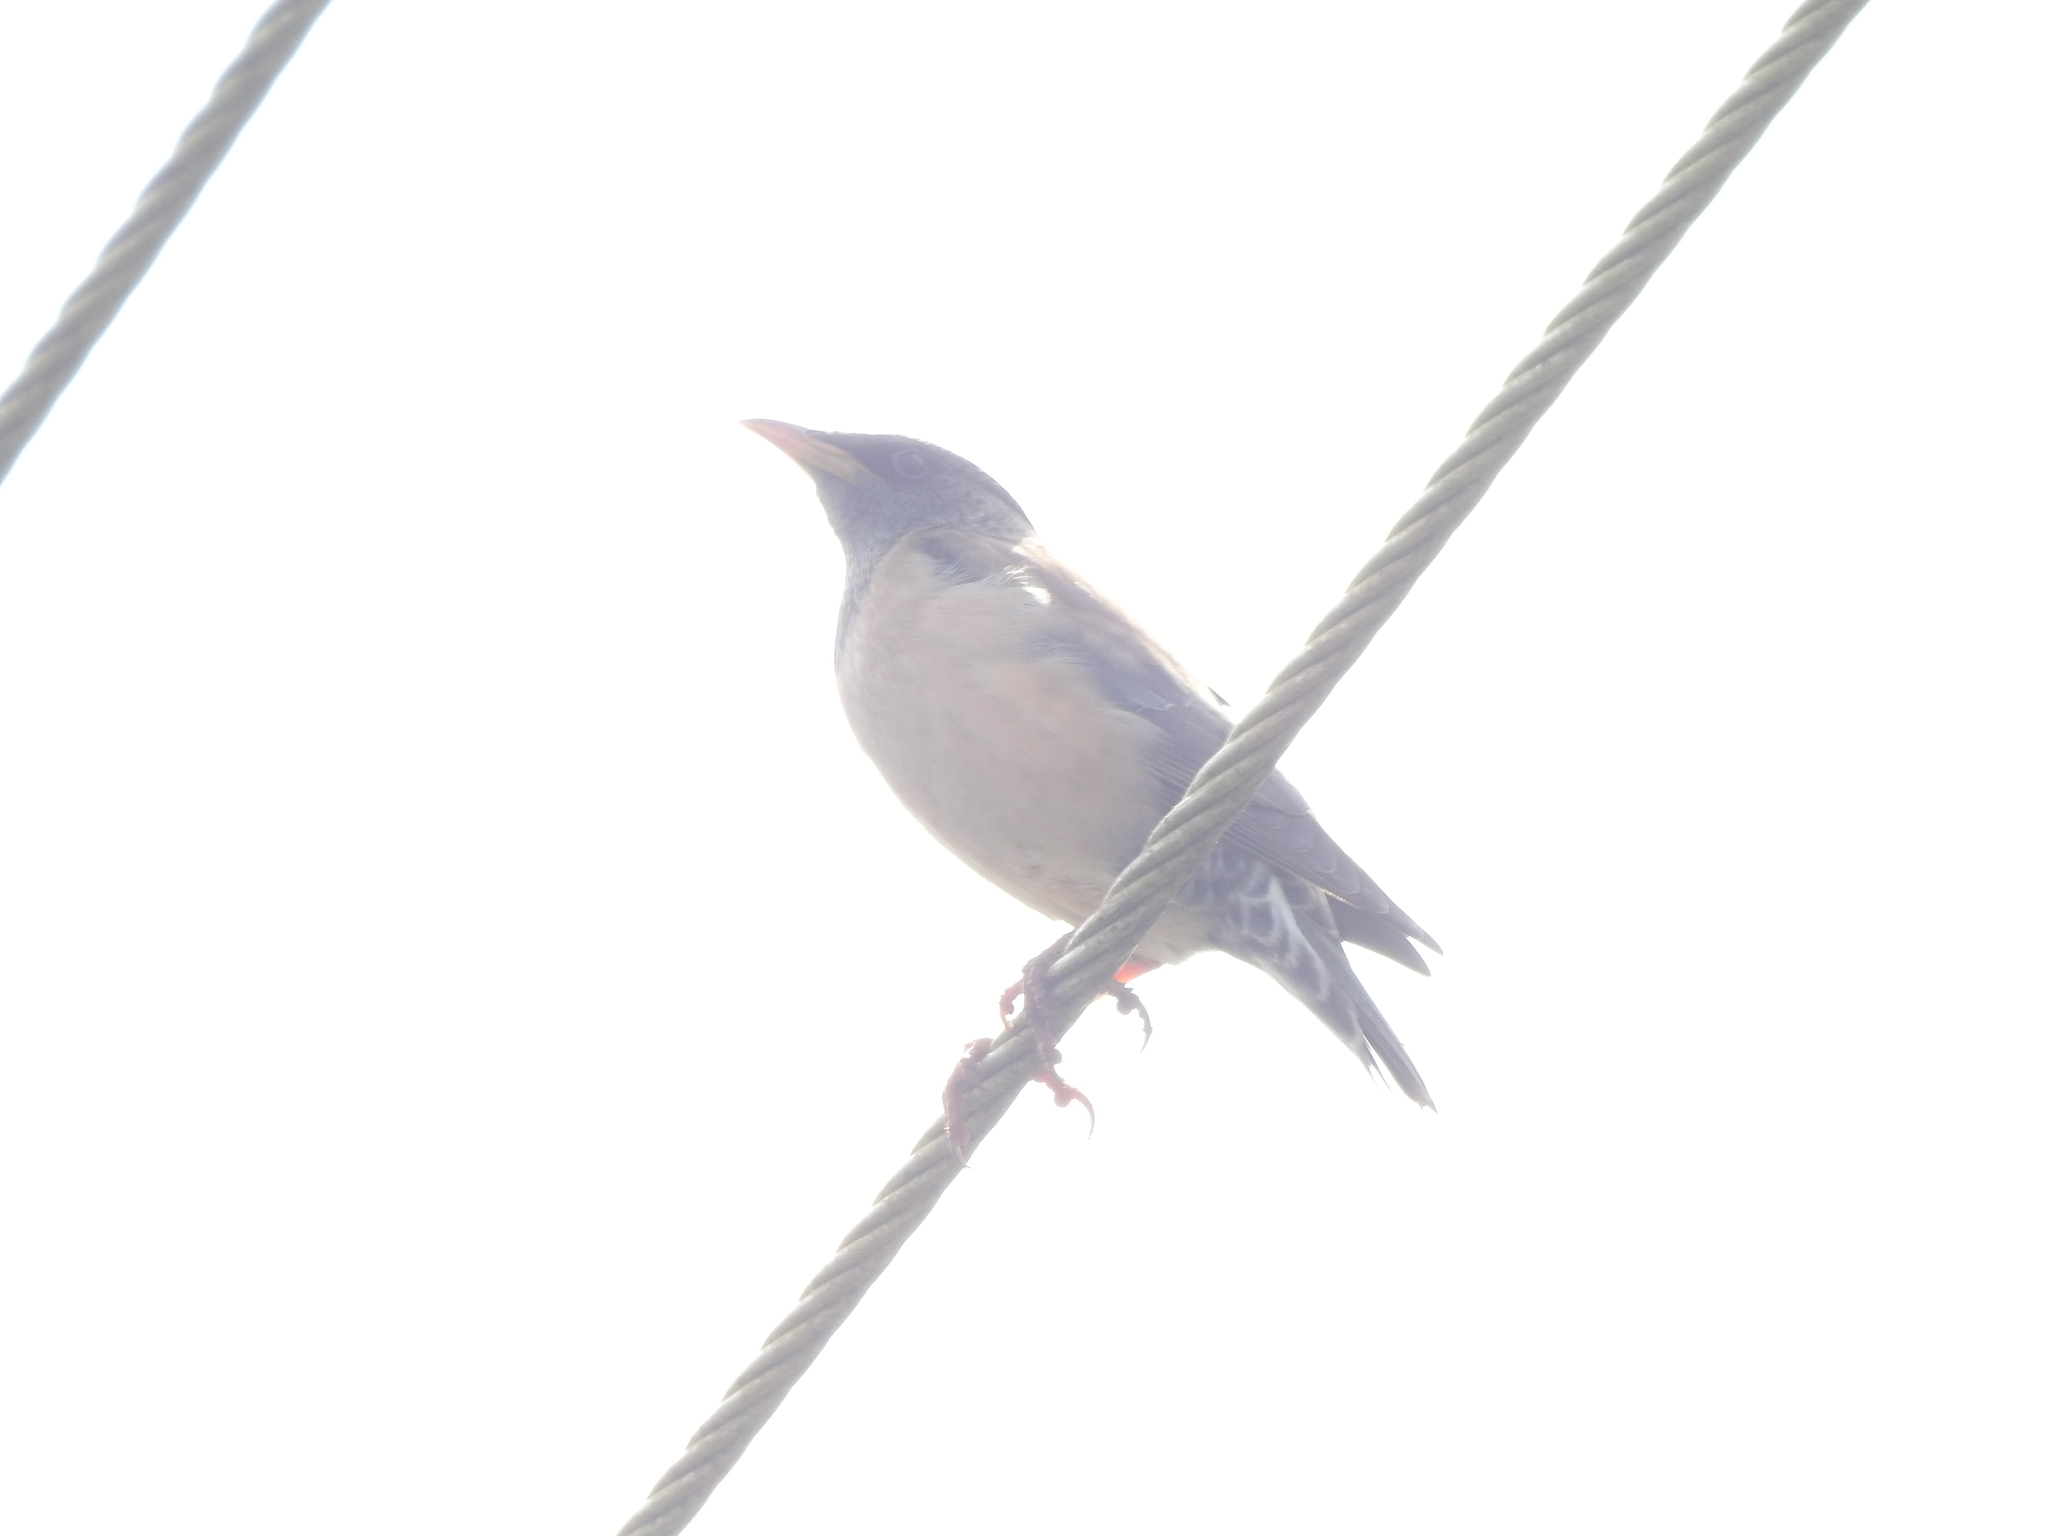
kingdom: Animalia
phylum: Chordata
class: Aves
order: Passeriformes
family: Sturnidae
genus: Pastor
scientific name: Pastor roseus
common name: Rosy starling
